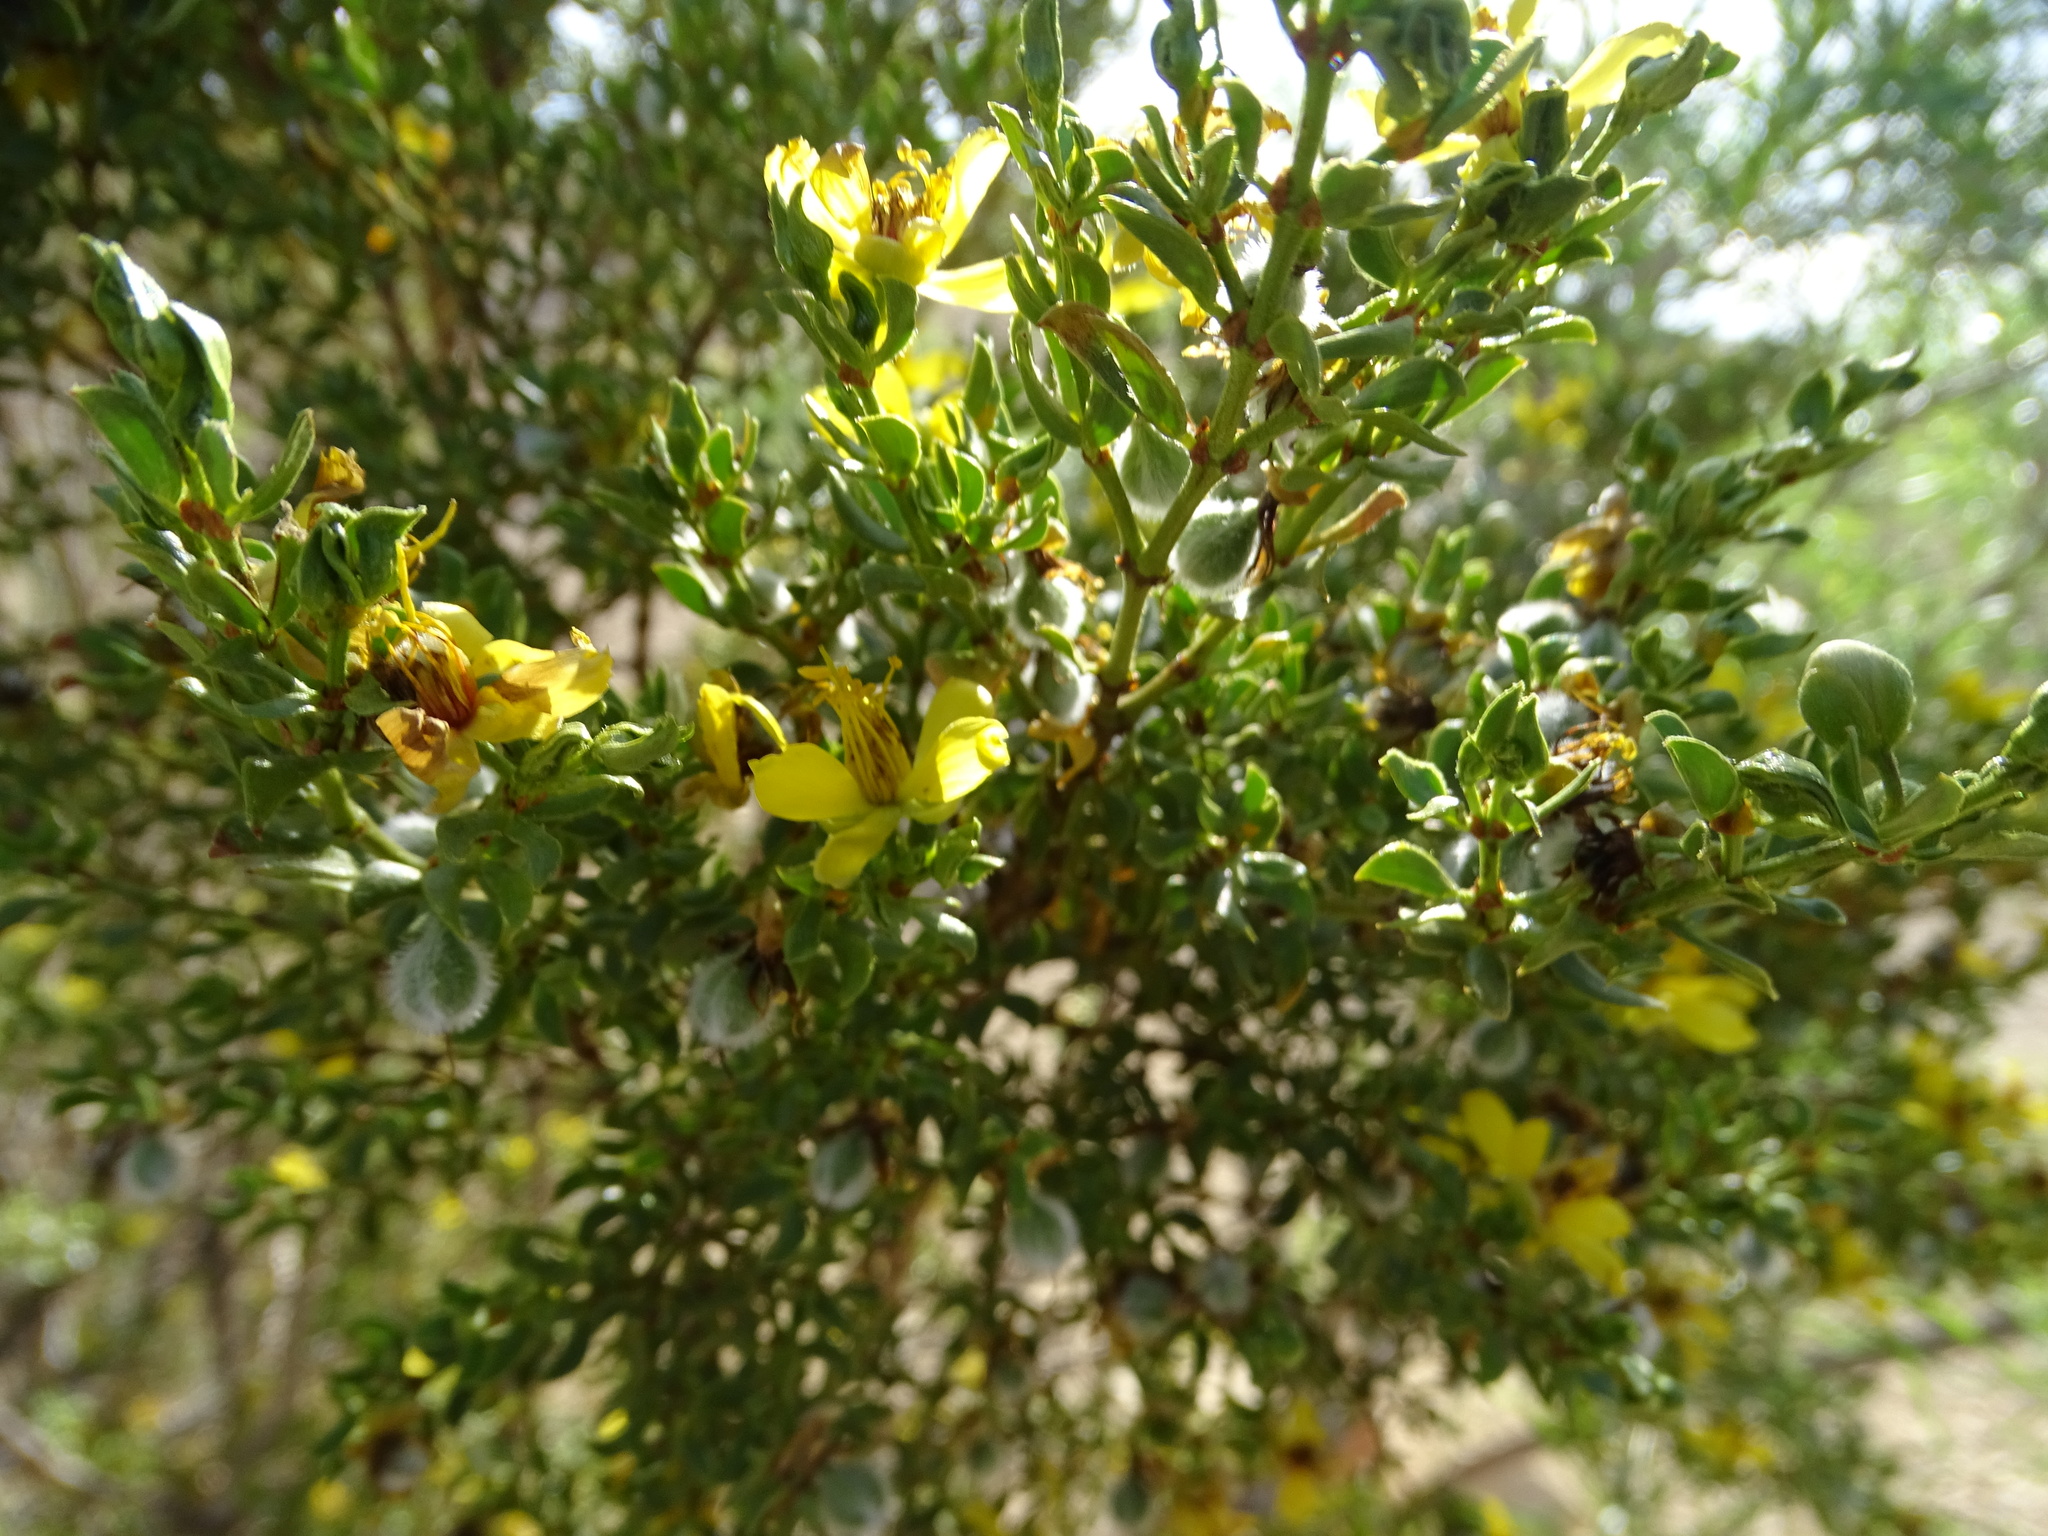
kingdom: Plantae
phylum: Tracheophyta
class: Magnoliopsida
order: Zygophyllales
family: Zygophyllaceae
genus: Larrea
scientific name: Larrea tridentata
